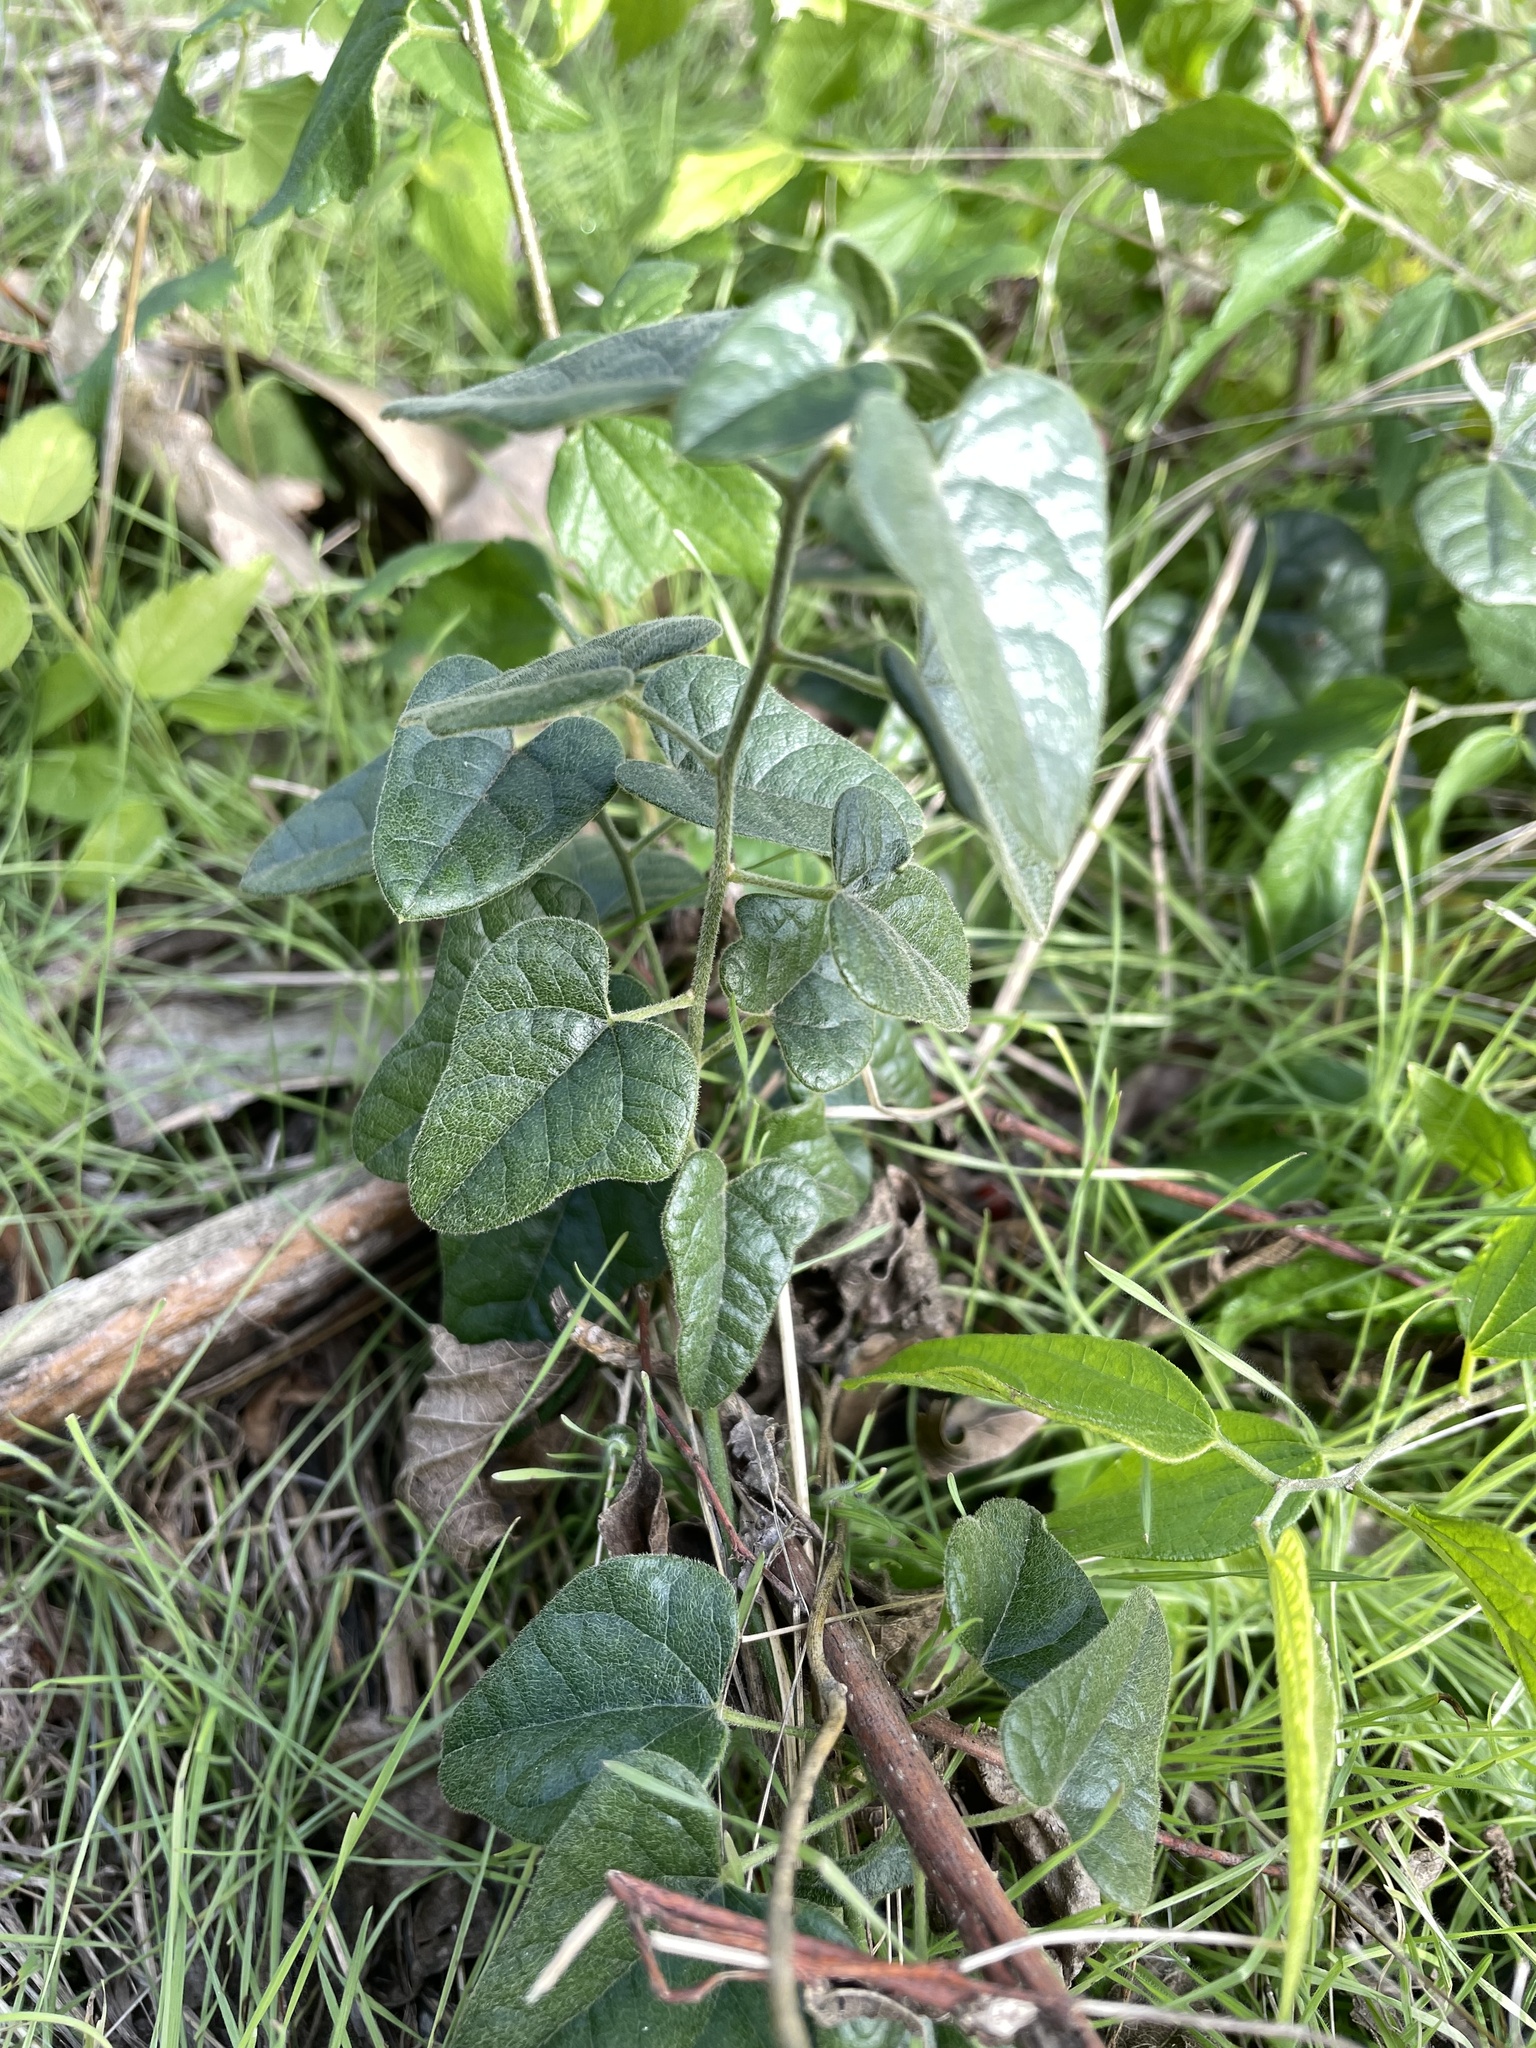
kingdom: Plantae
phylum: Tracheophyta
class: Magnoliopsida
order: Ranunculales
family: Menispermaceae
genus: Cocculus
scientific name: Cocculus carolinus
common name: Carolina moonseed
